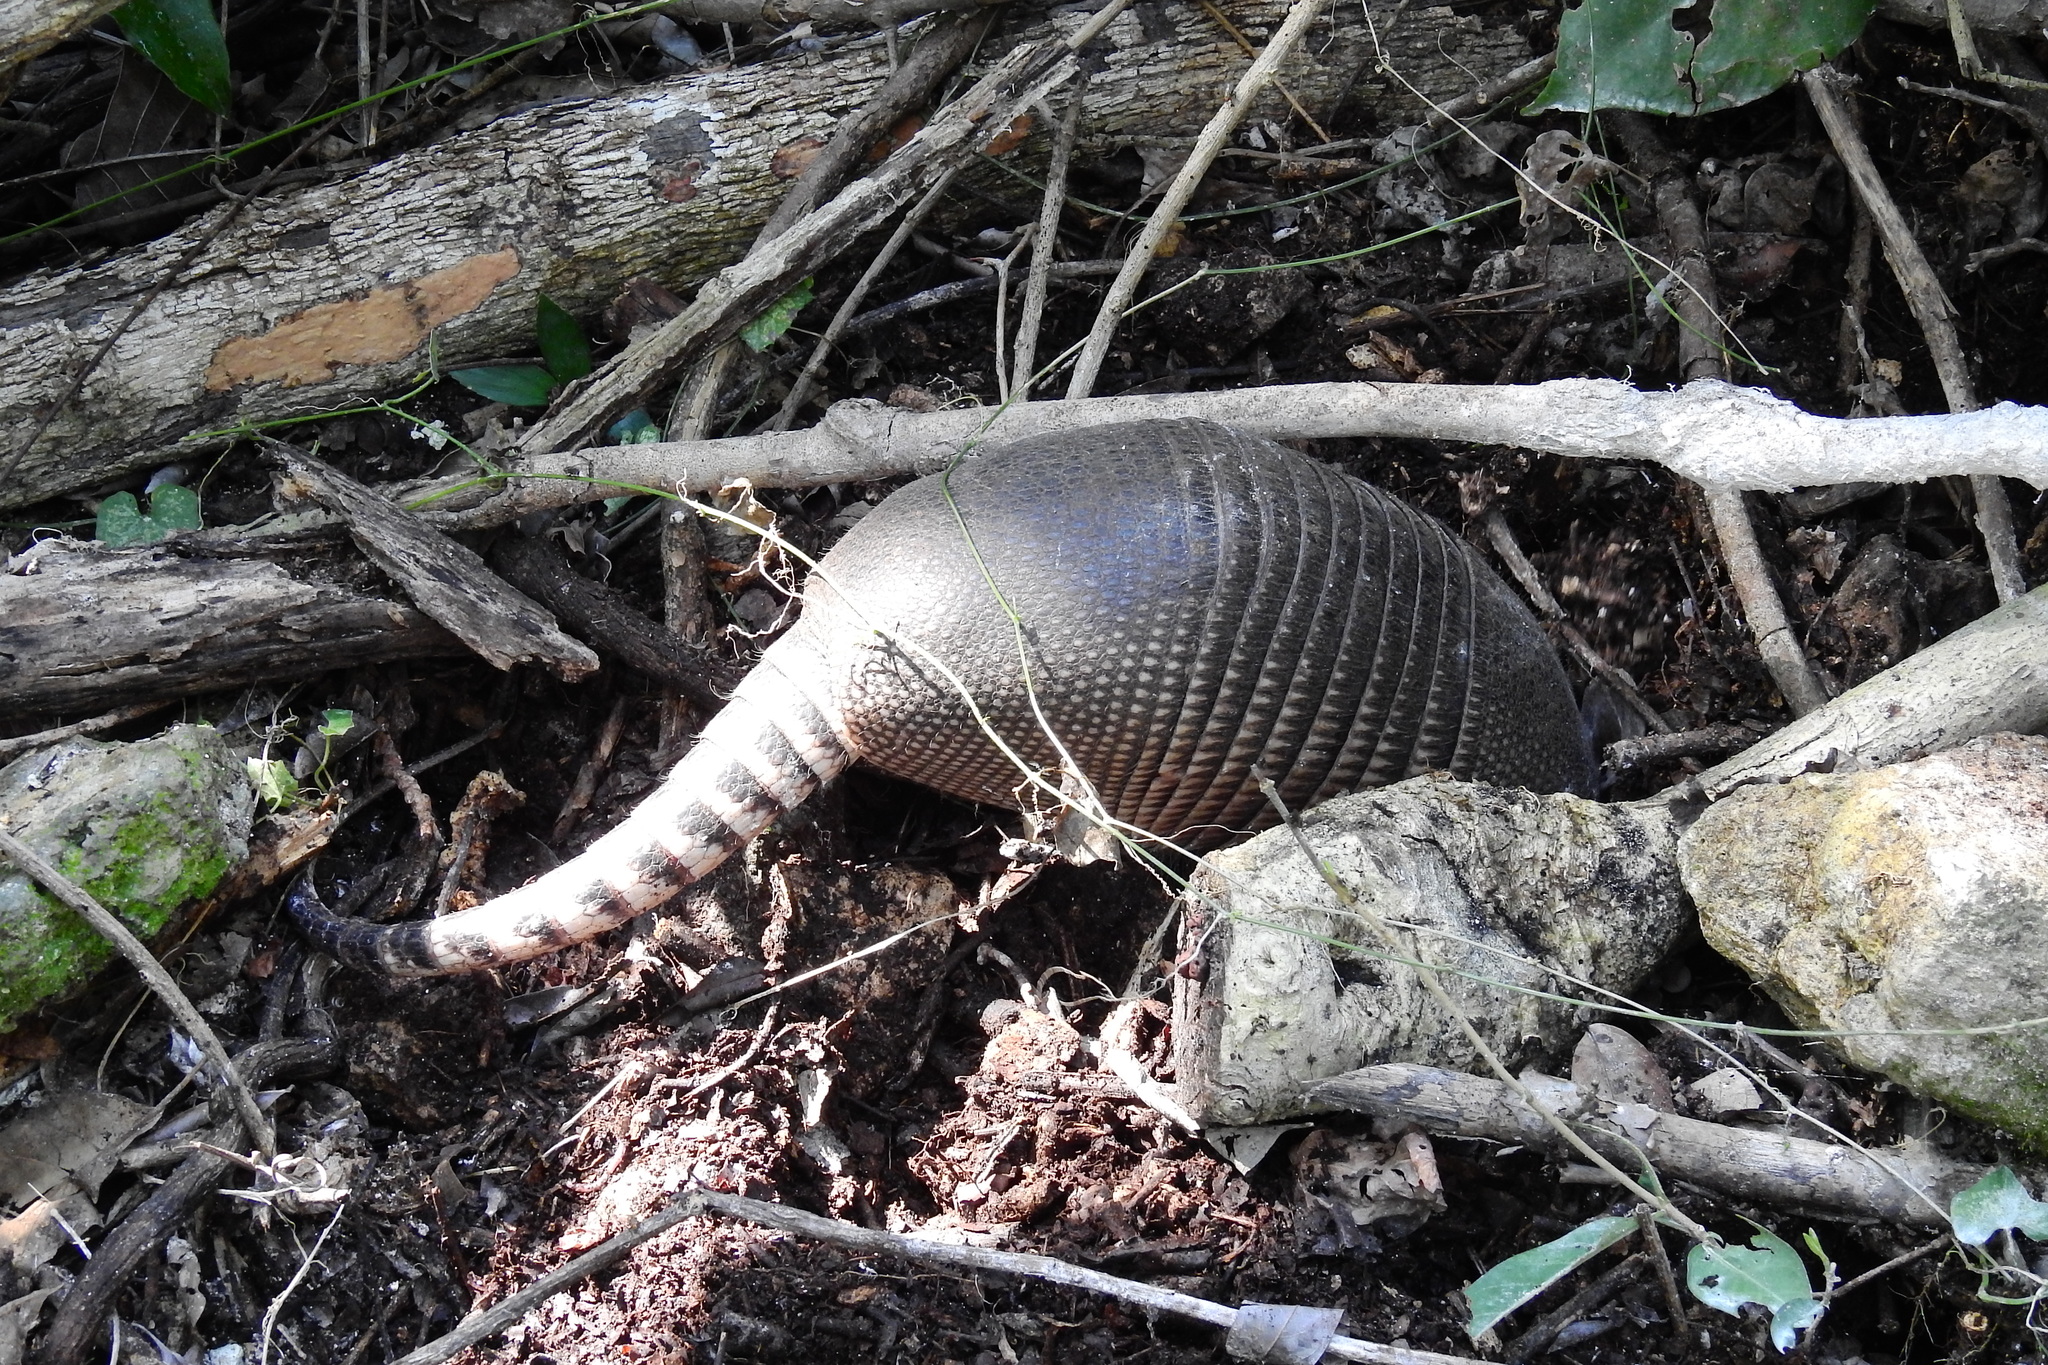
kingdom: Animalia
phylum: Chordata
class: Mammalia
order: Cingulata
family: Dasypodidae
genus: Dasypus
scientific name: Dasypus novemcinctus
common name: Nine-banded armadillo
